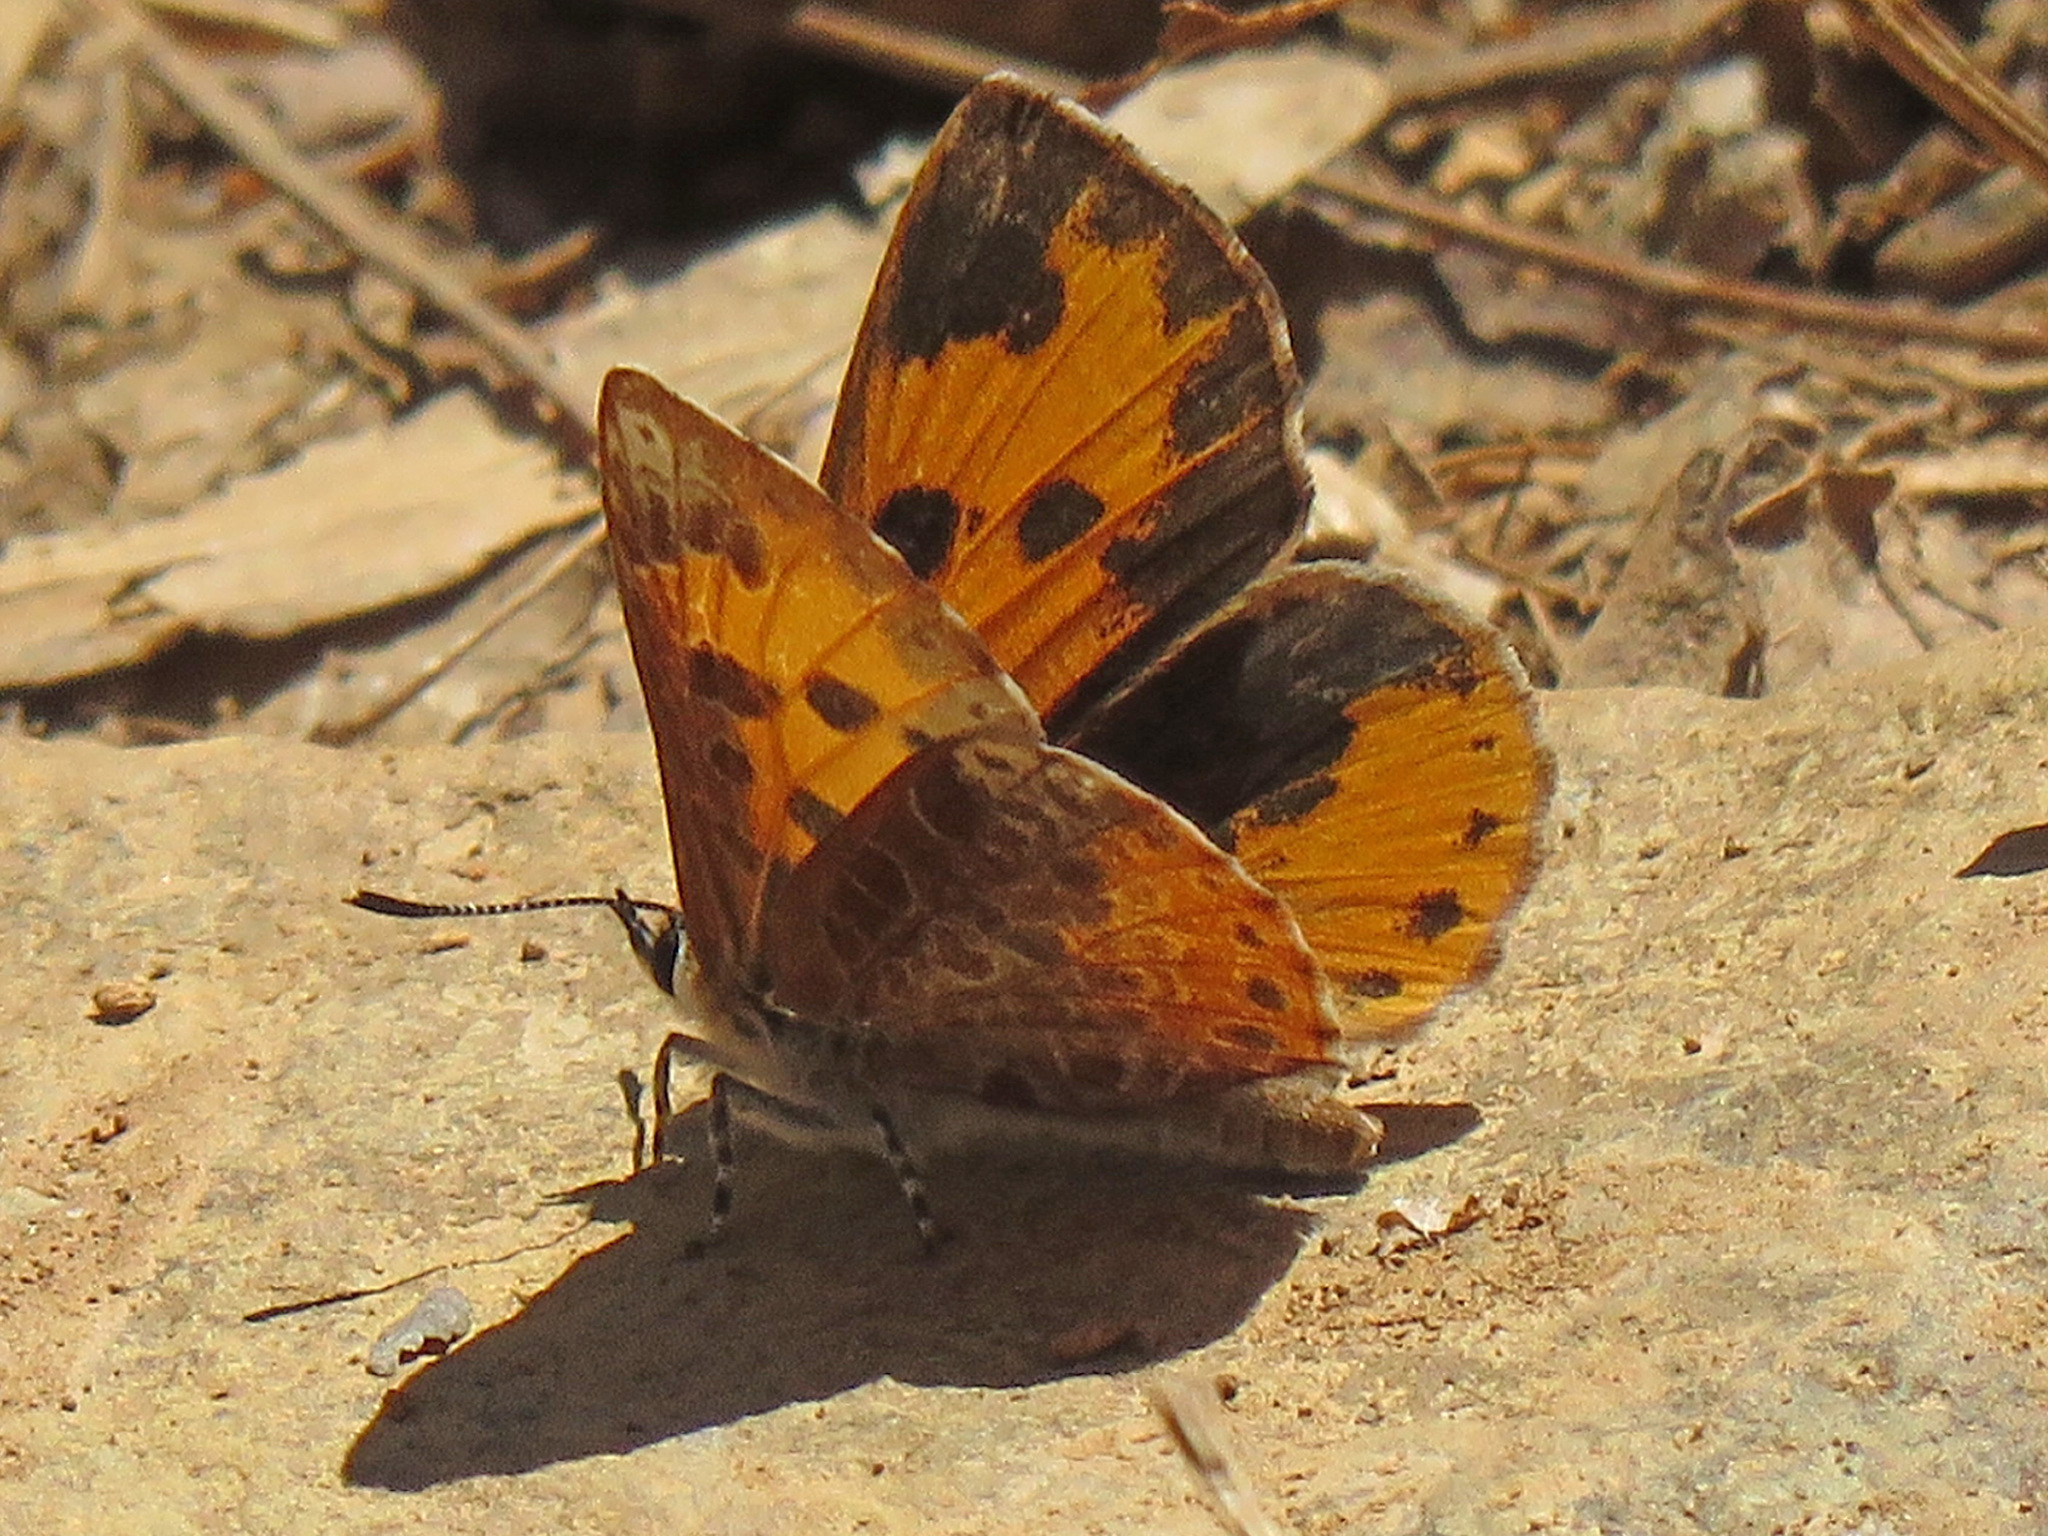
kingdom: Animalia
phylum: Arthropoda
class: Insecta
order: Lepidoptera
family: Lycaenidae
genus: Feniseca
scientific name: Feniseca tarquinius
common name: Harvester
